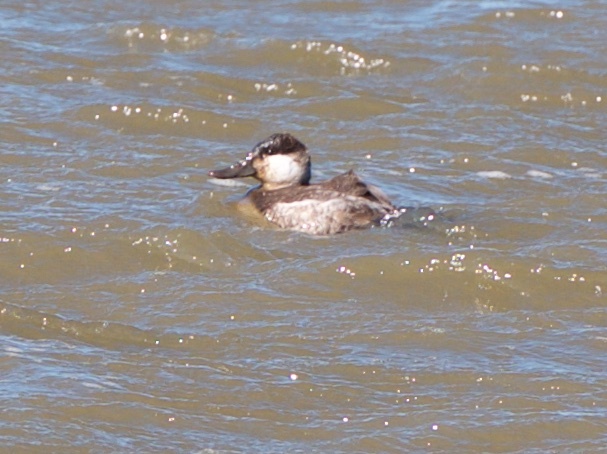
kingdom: Animalia
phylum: Chordata
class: Aves
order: Anseriformes
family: Anatidae
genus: Oxyura
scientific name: Oxyura jamaicensis
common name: Ruddy duck
